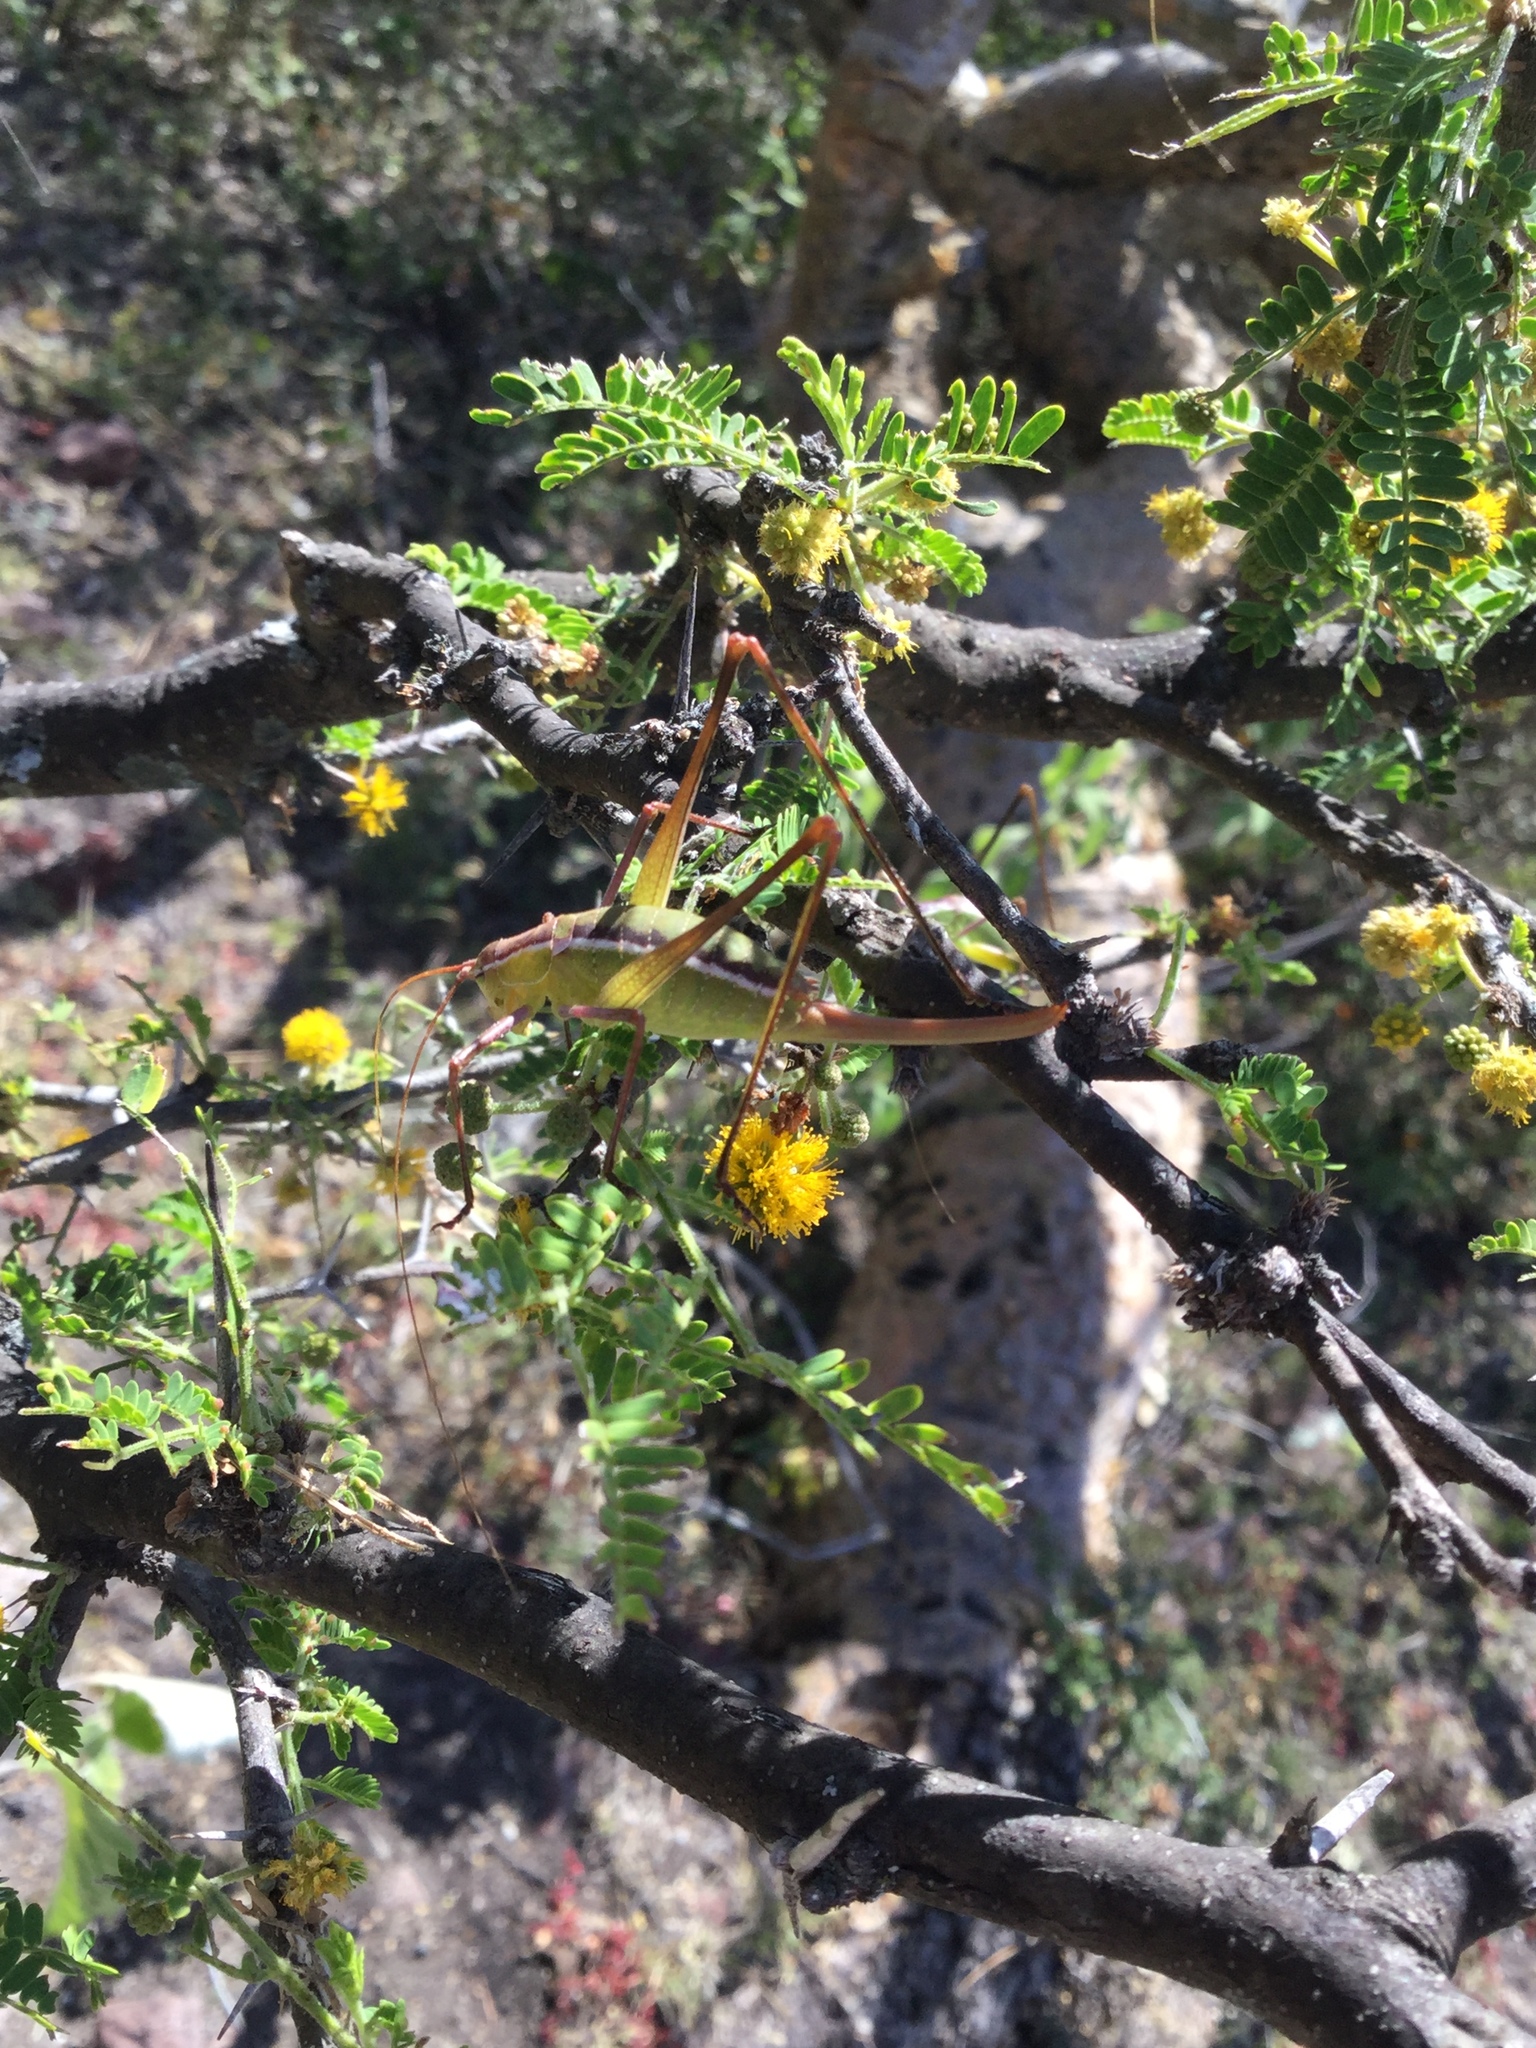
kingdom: Animalia
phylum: Arthropoda
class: Insecta
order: Hemiptera
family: Coreidae
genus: Thasus
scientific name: Thasus
